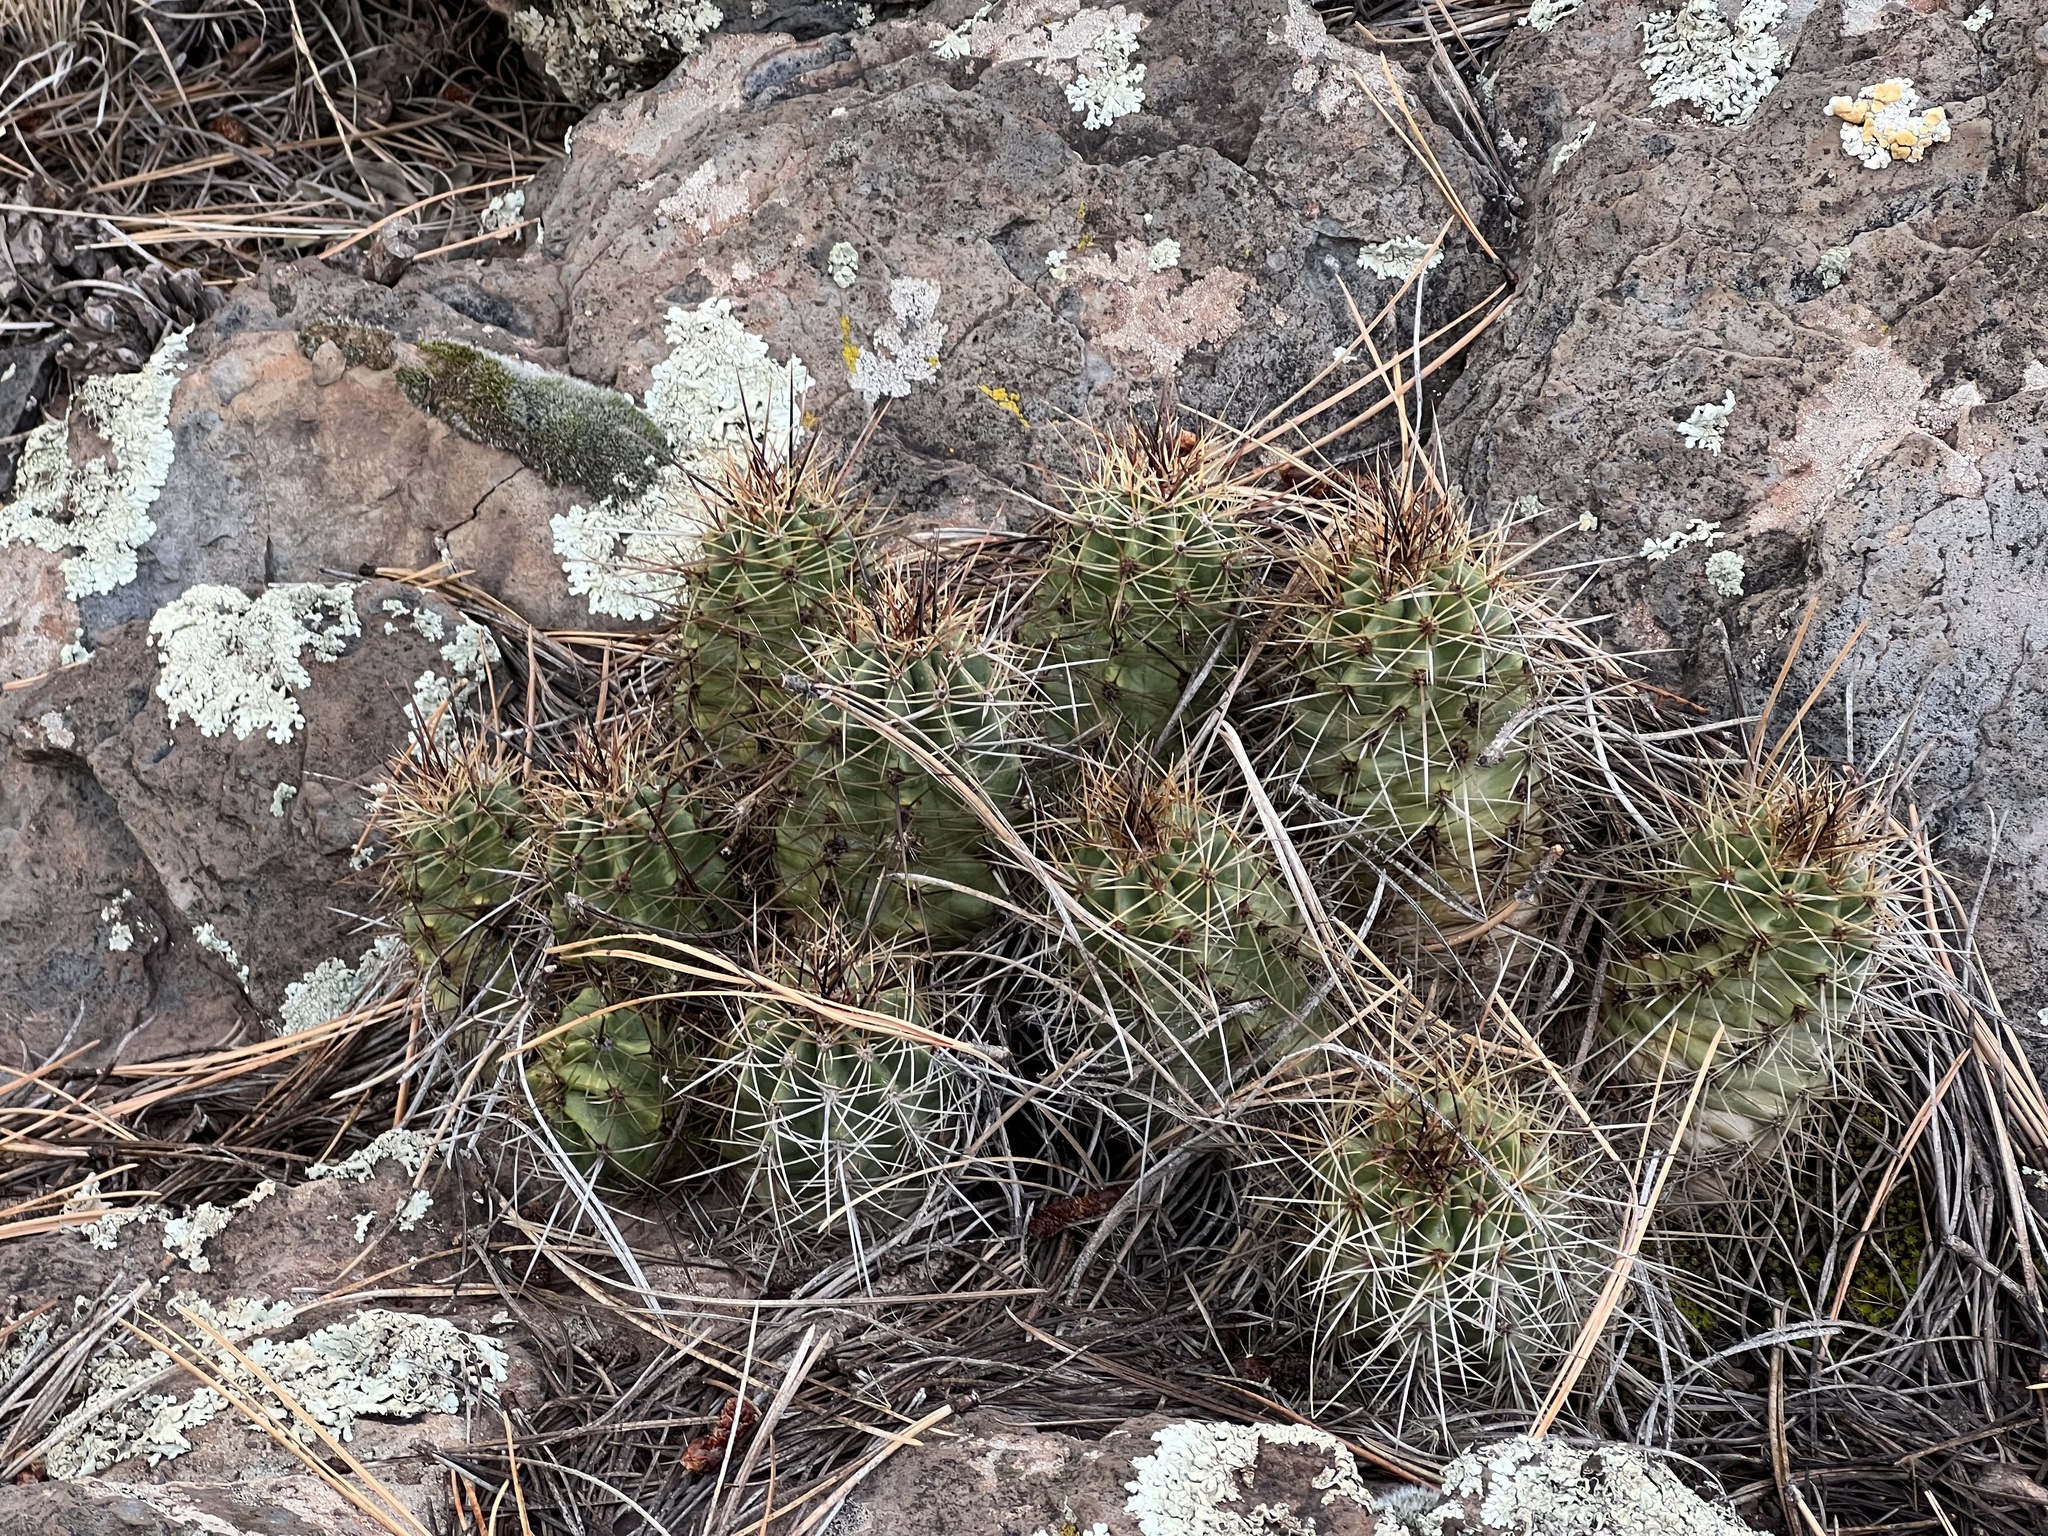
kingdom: Plantae
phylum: Tracheophyta
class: Magnoliopsida
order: Caryophyllales
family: Cactaceae
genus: Echinocereus
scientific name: Echinocereus bakeri
